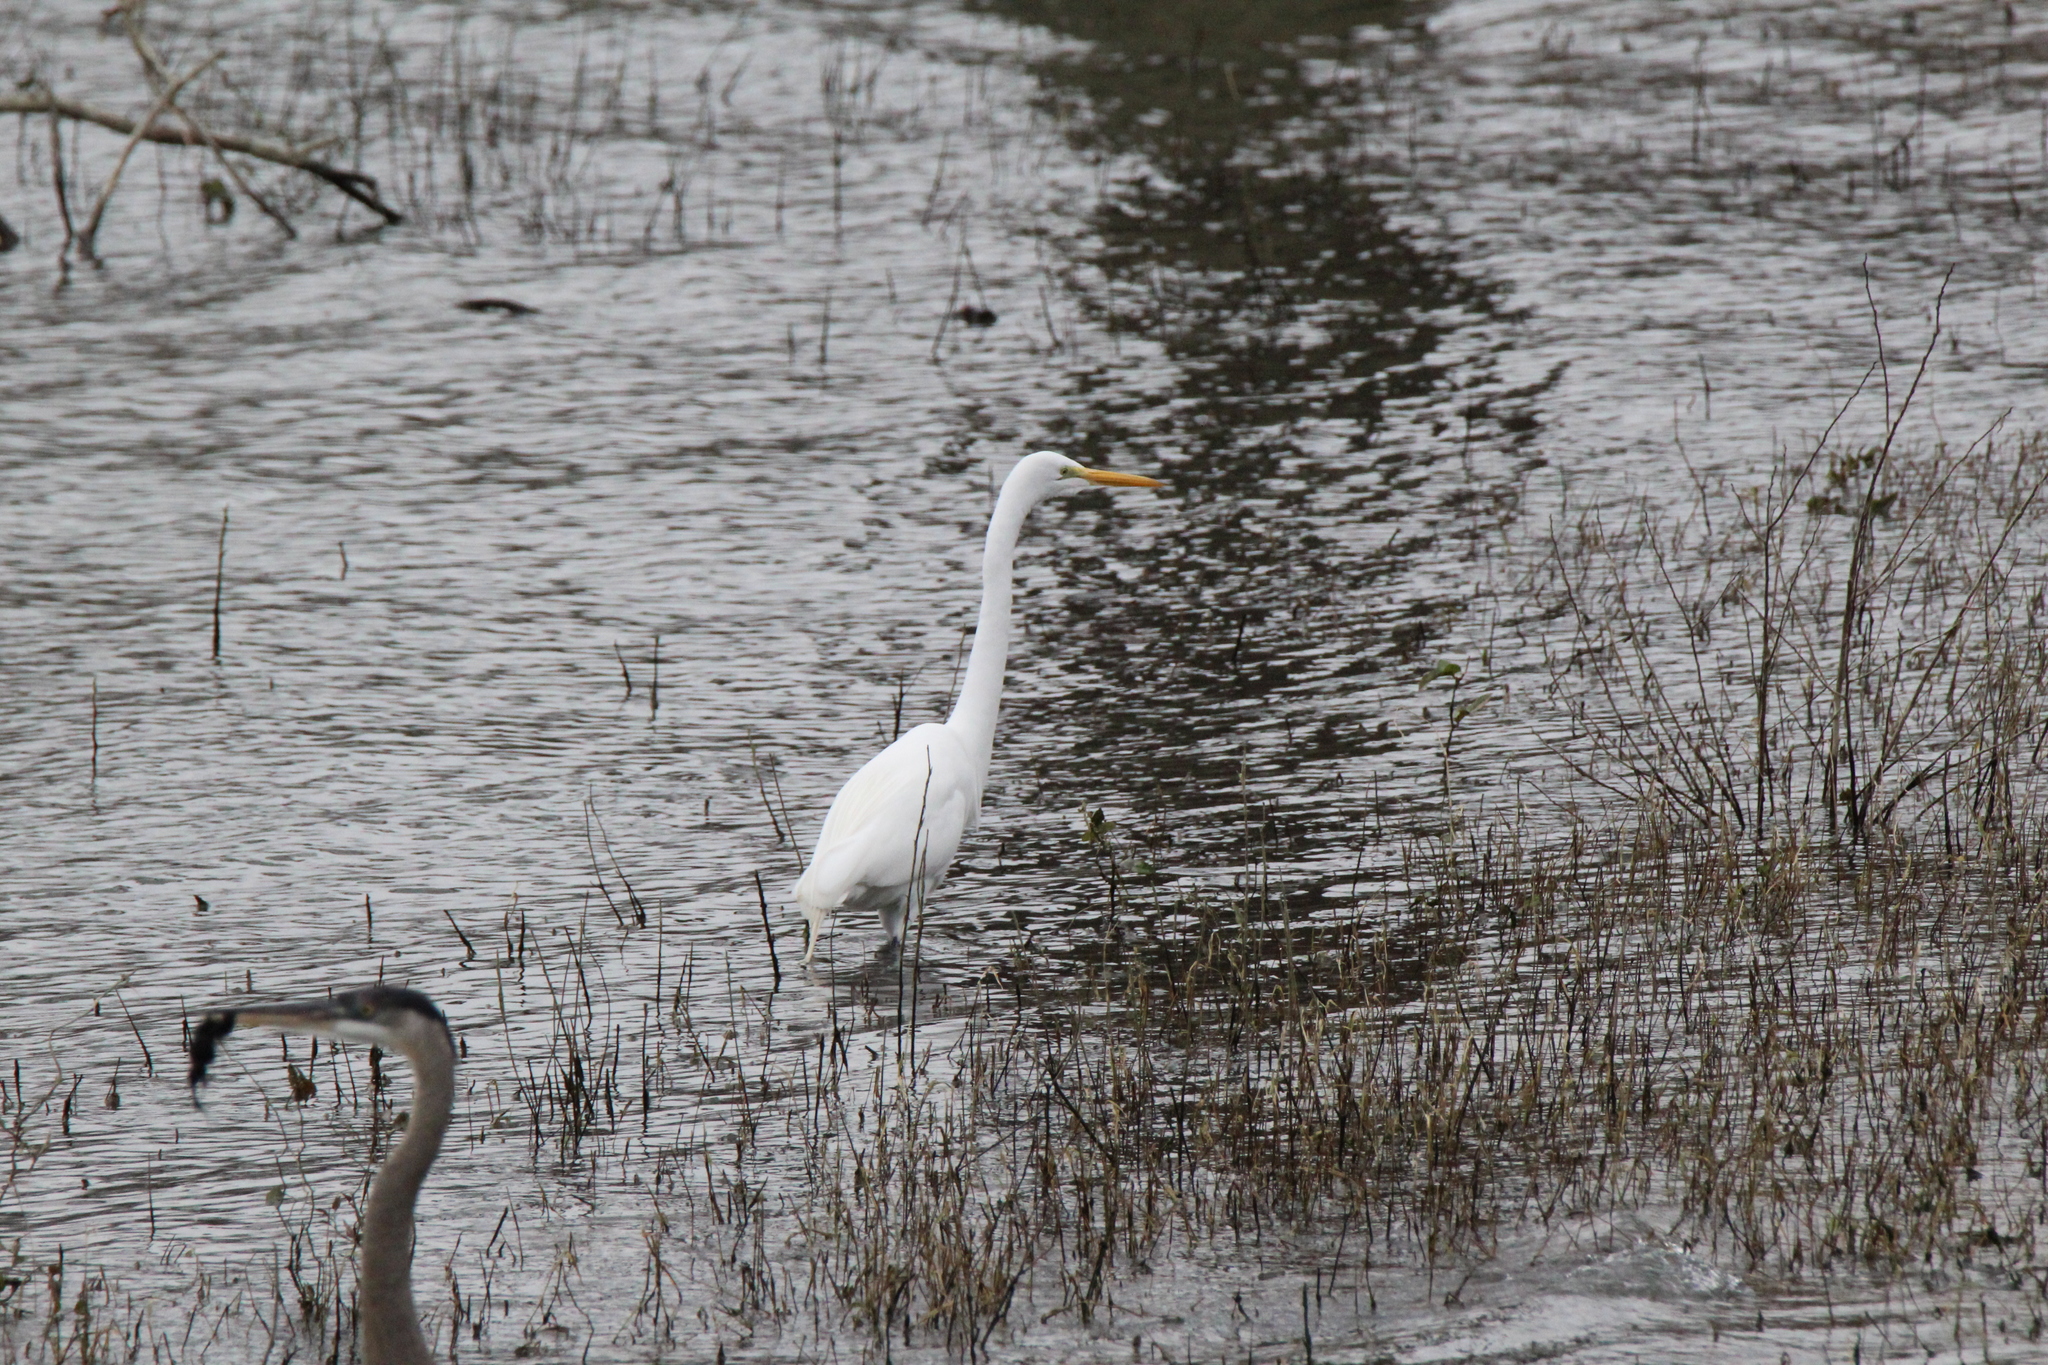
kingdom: Animalia
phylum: Chordata
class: Aves
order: Pelecaniformes
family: Ardeidae
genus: Ardea
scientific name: Ardea alba
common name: Great egret
